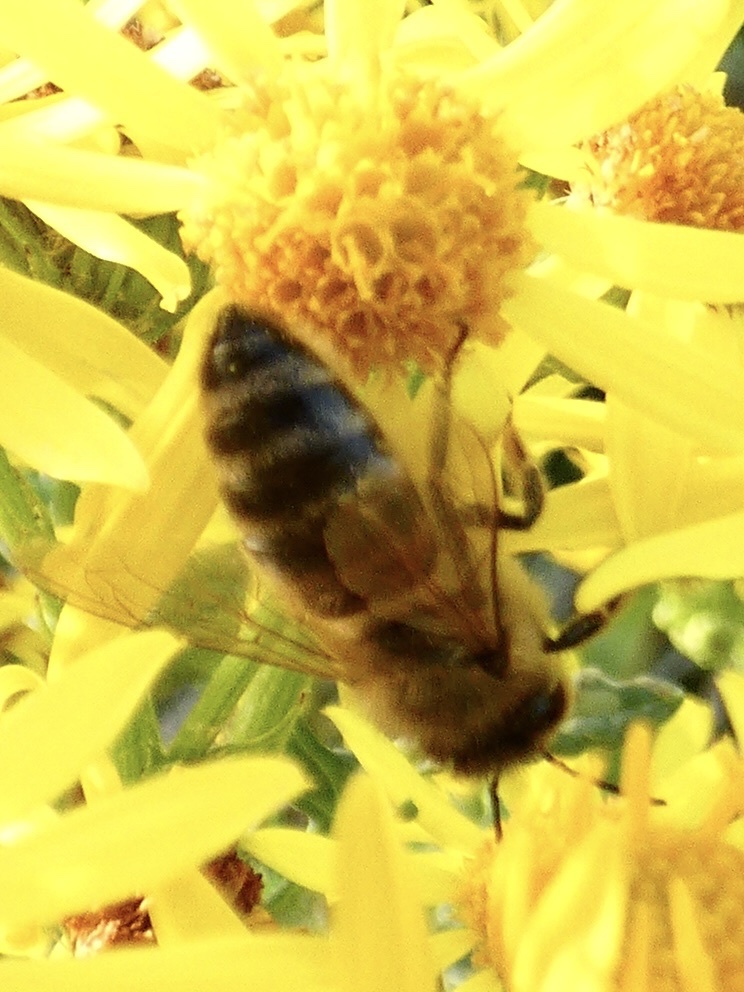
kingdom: Animalia
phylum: Arthropoda
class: Insecta
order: Hymenoptera
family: Apidae
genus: Apis
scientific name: Apis mellifera
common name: Honey bee
